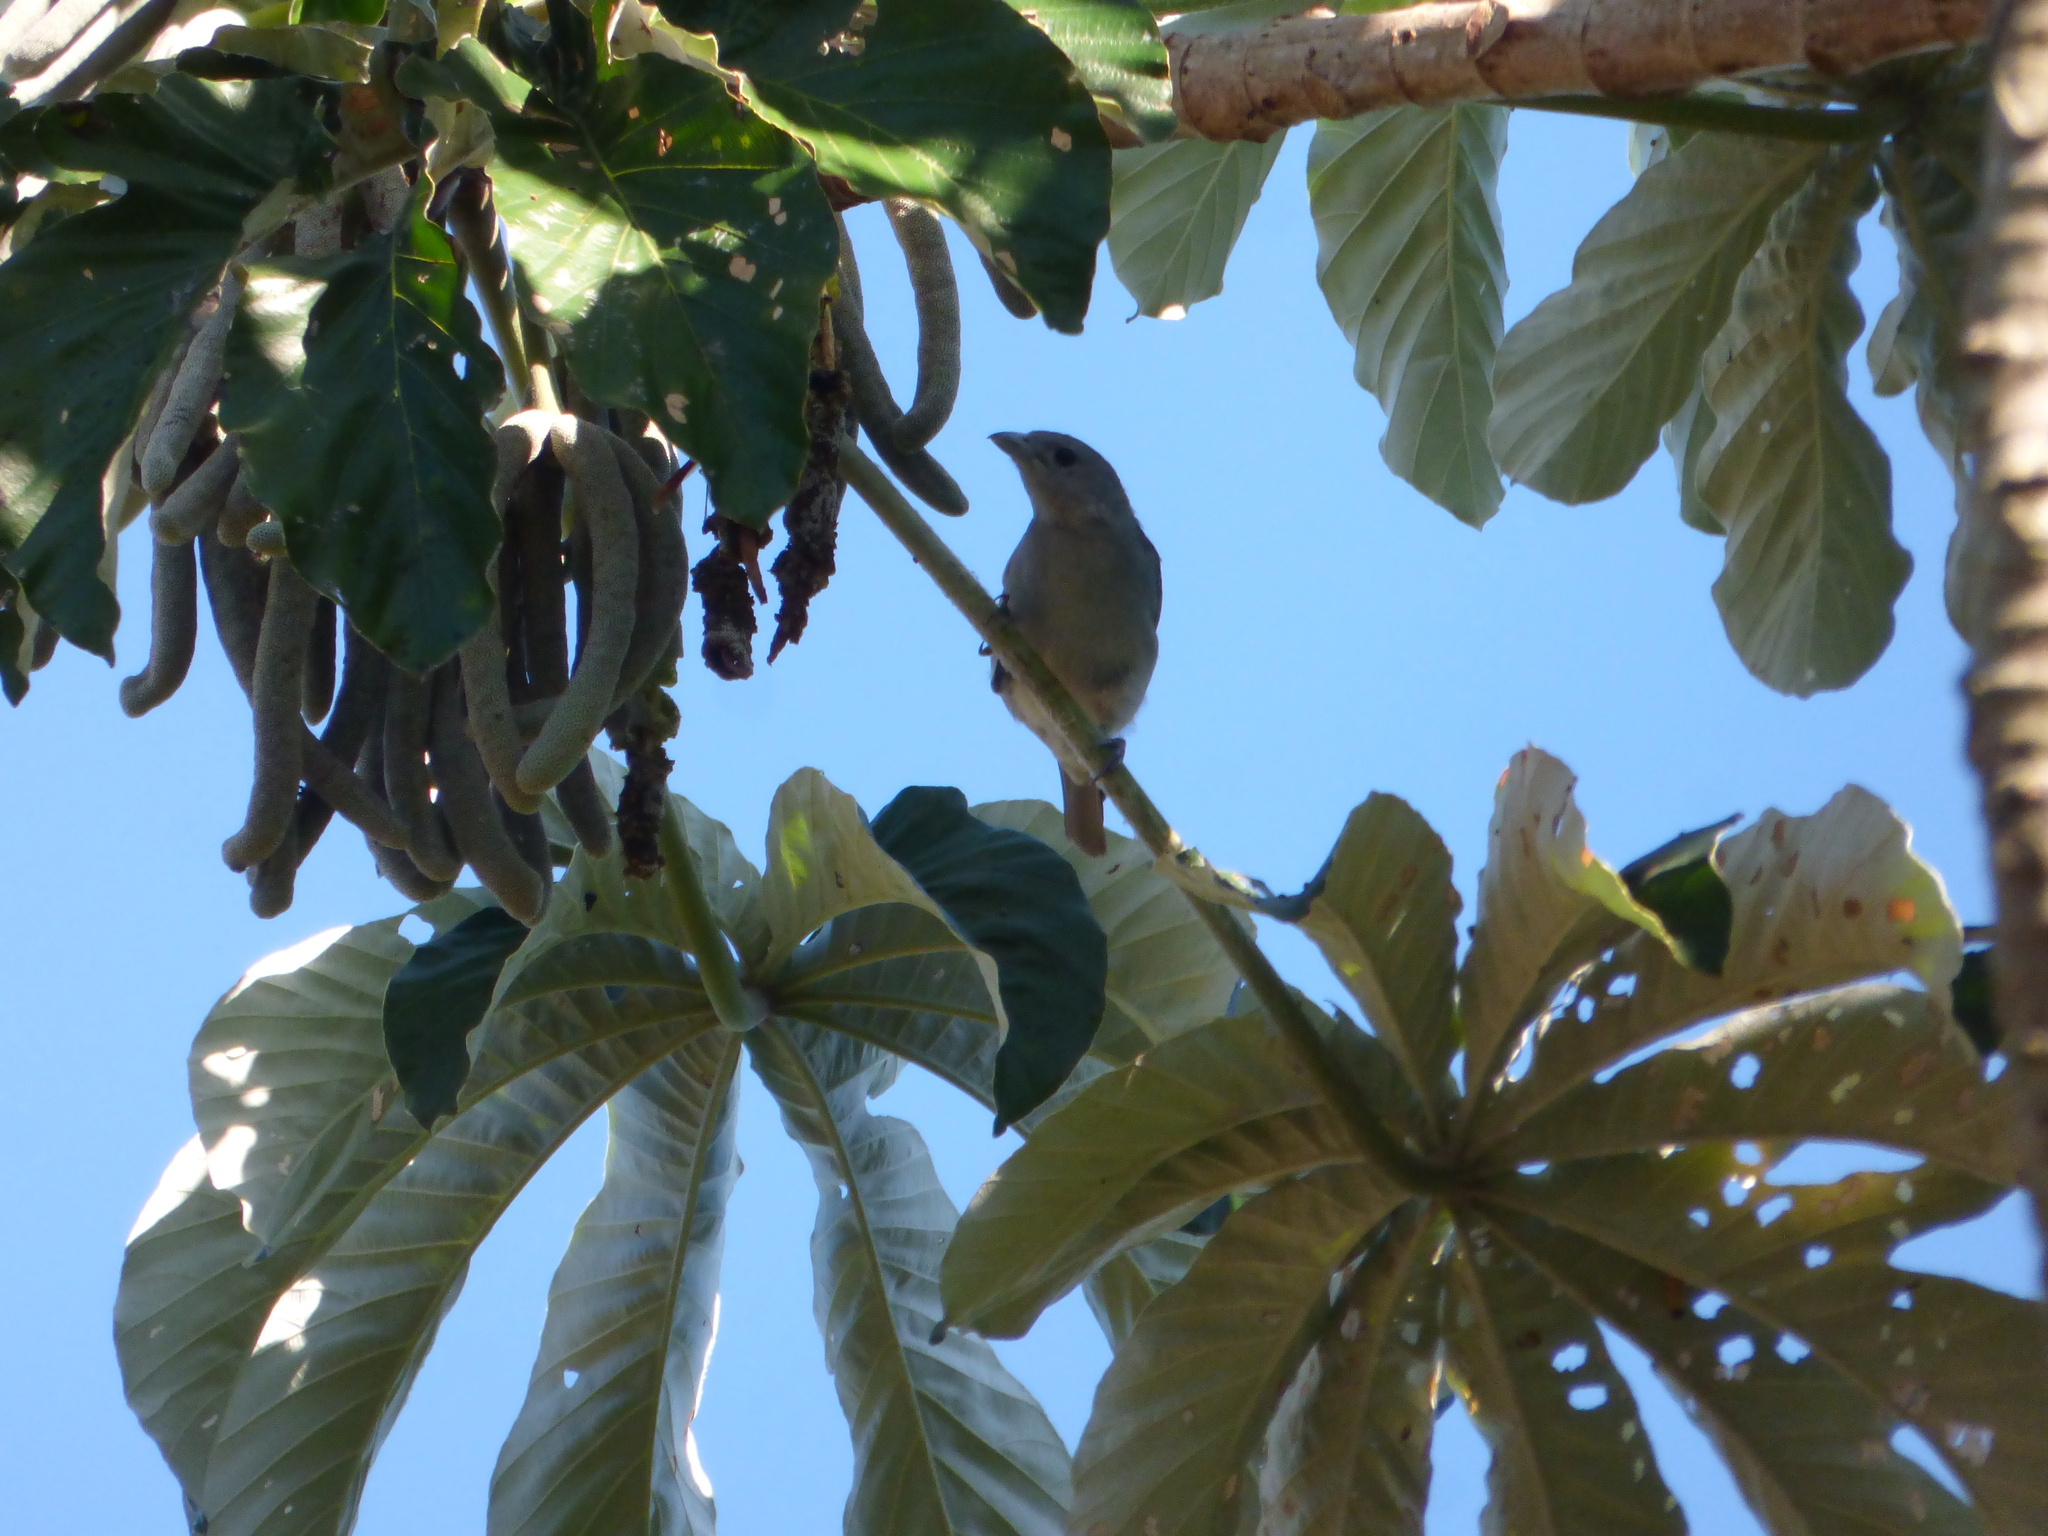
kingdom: Animalia
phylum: Chordata
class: Aves
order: Passeriformes
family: Thraupidae
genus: Thraupis
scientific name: Thraupis sayaca
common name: Sayaca tanager
